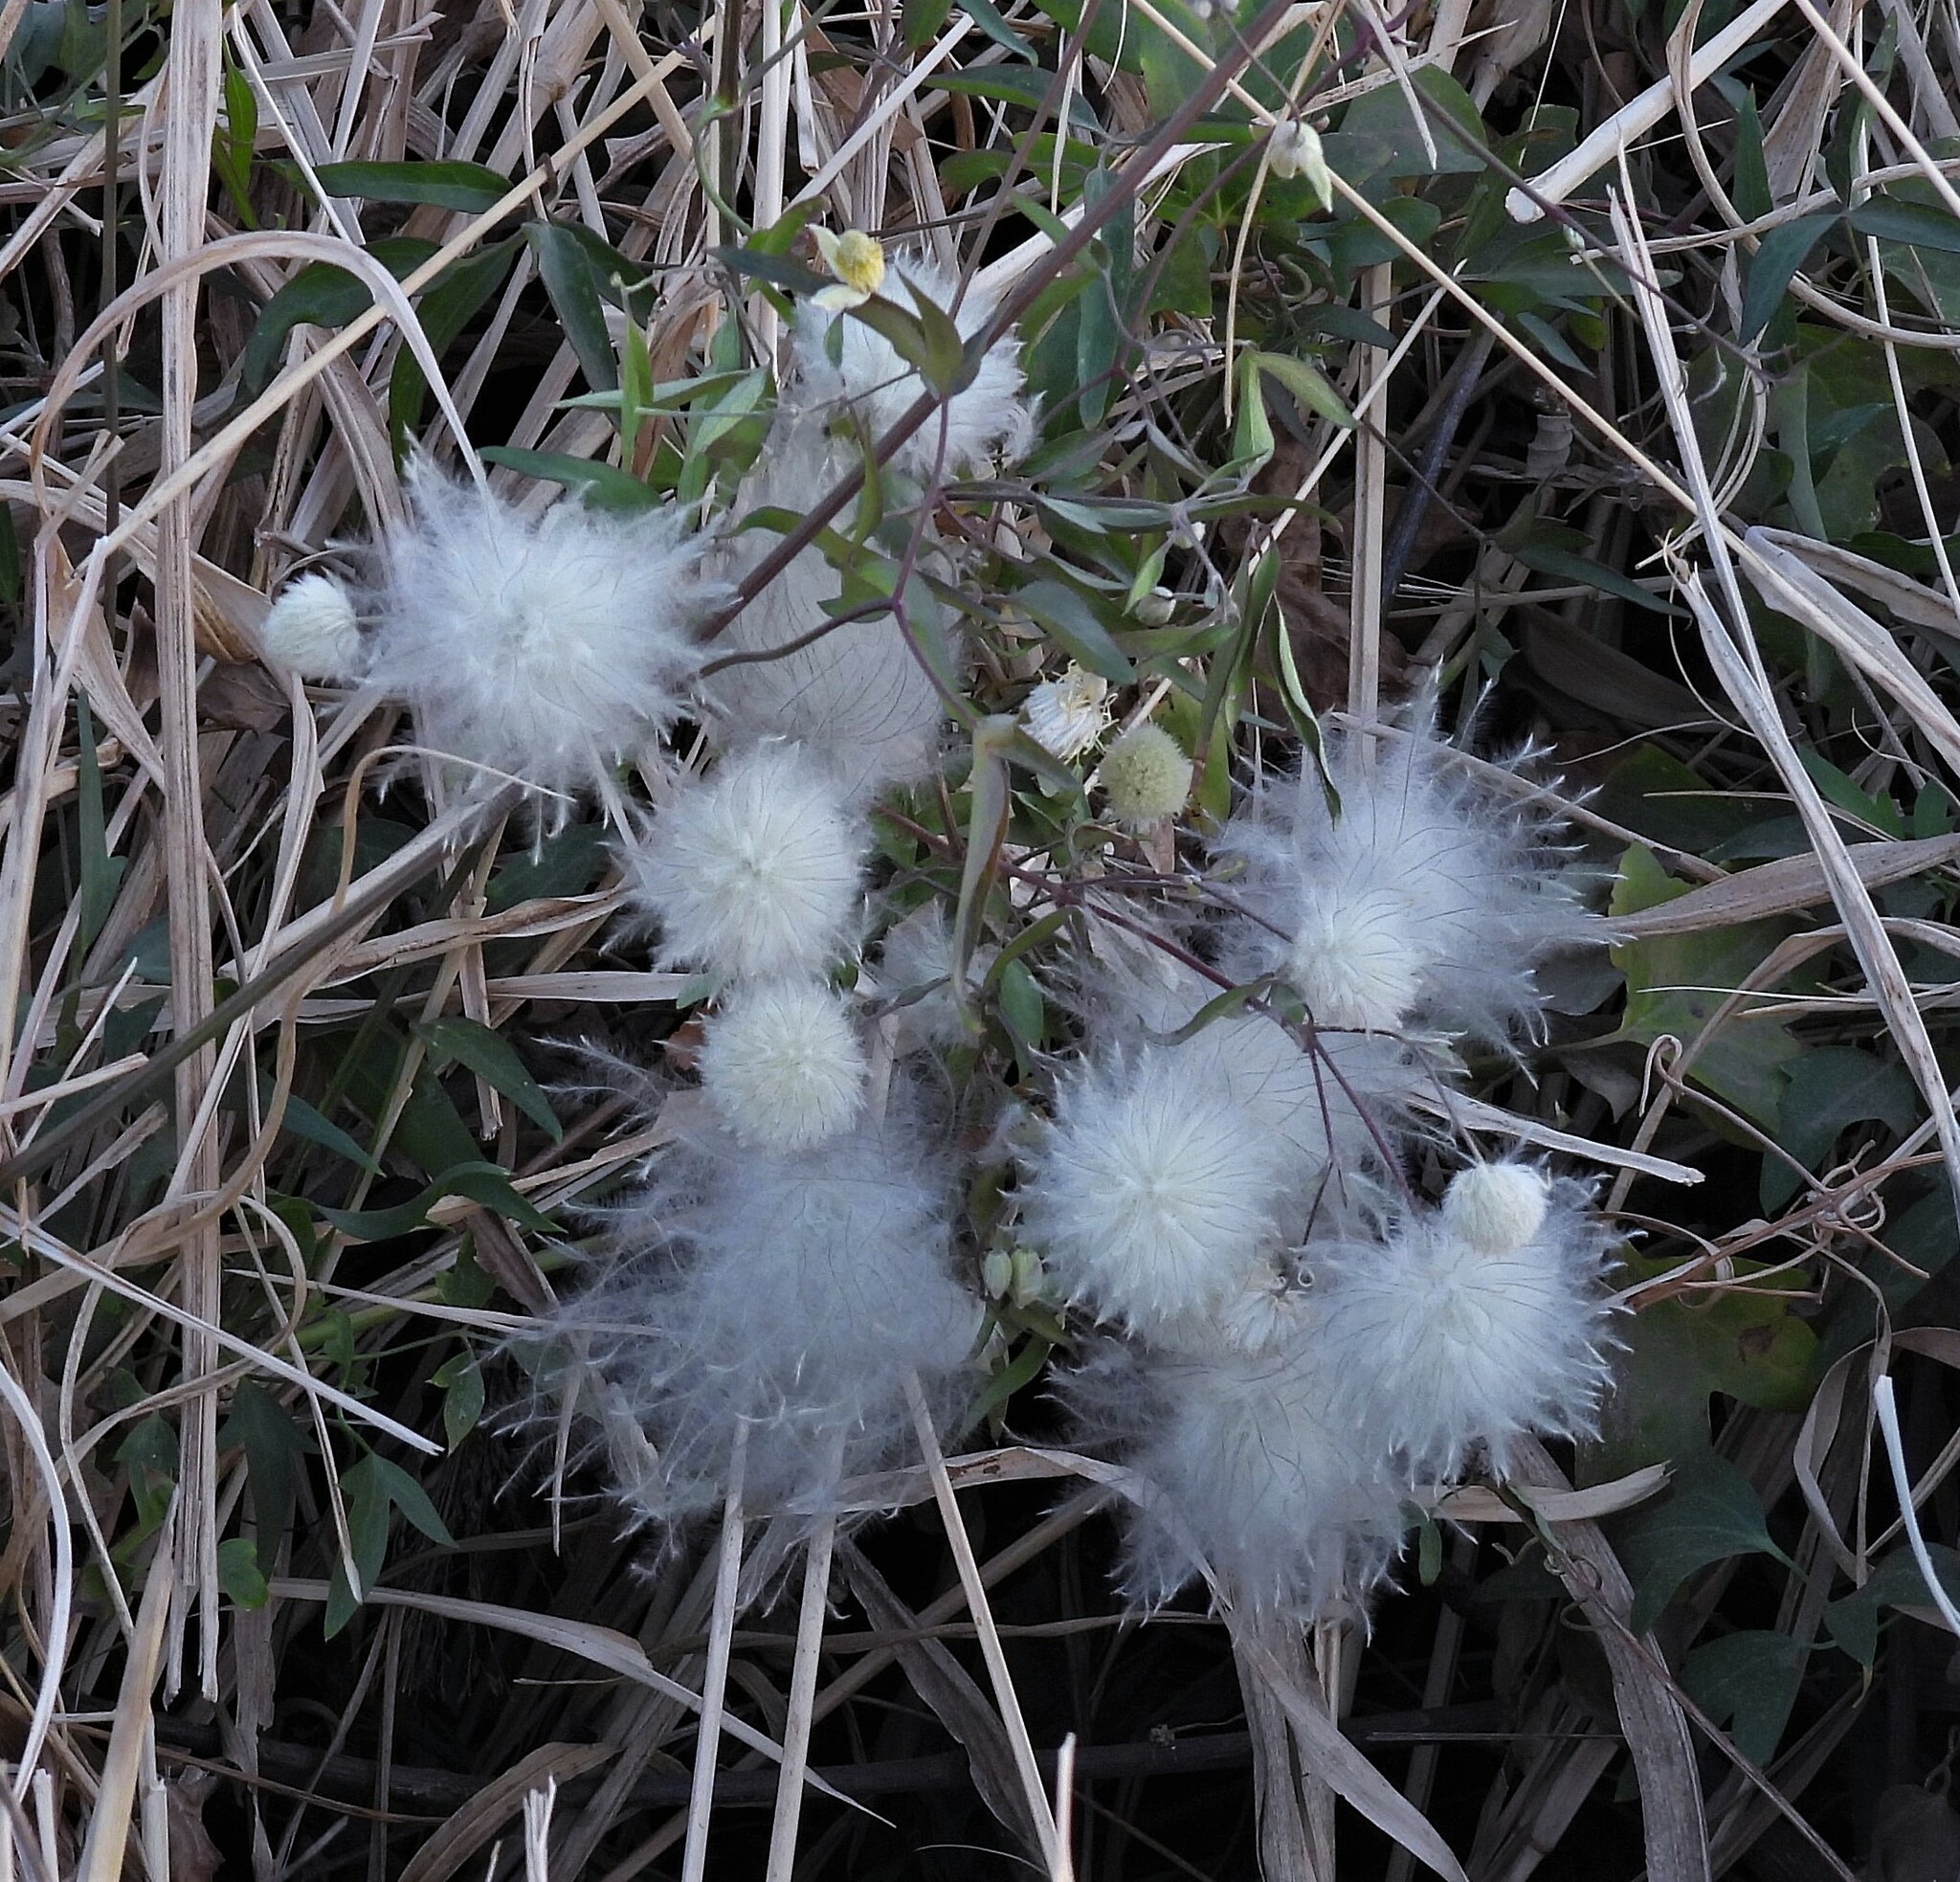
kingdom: Plantae
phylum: Tracheophyta
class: Magnoliopsida
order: Ranunculales
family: Ranunculaceae
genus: Clematis
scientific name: Clematis montevidensis
